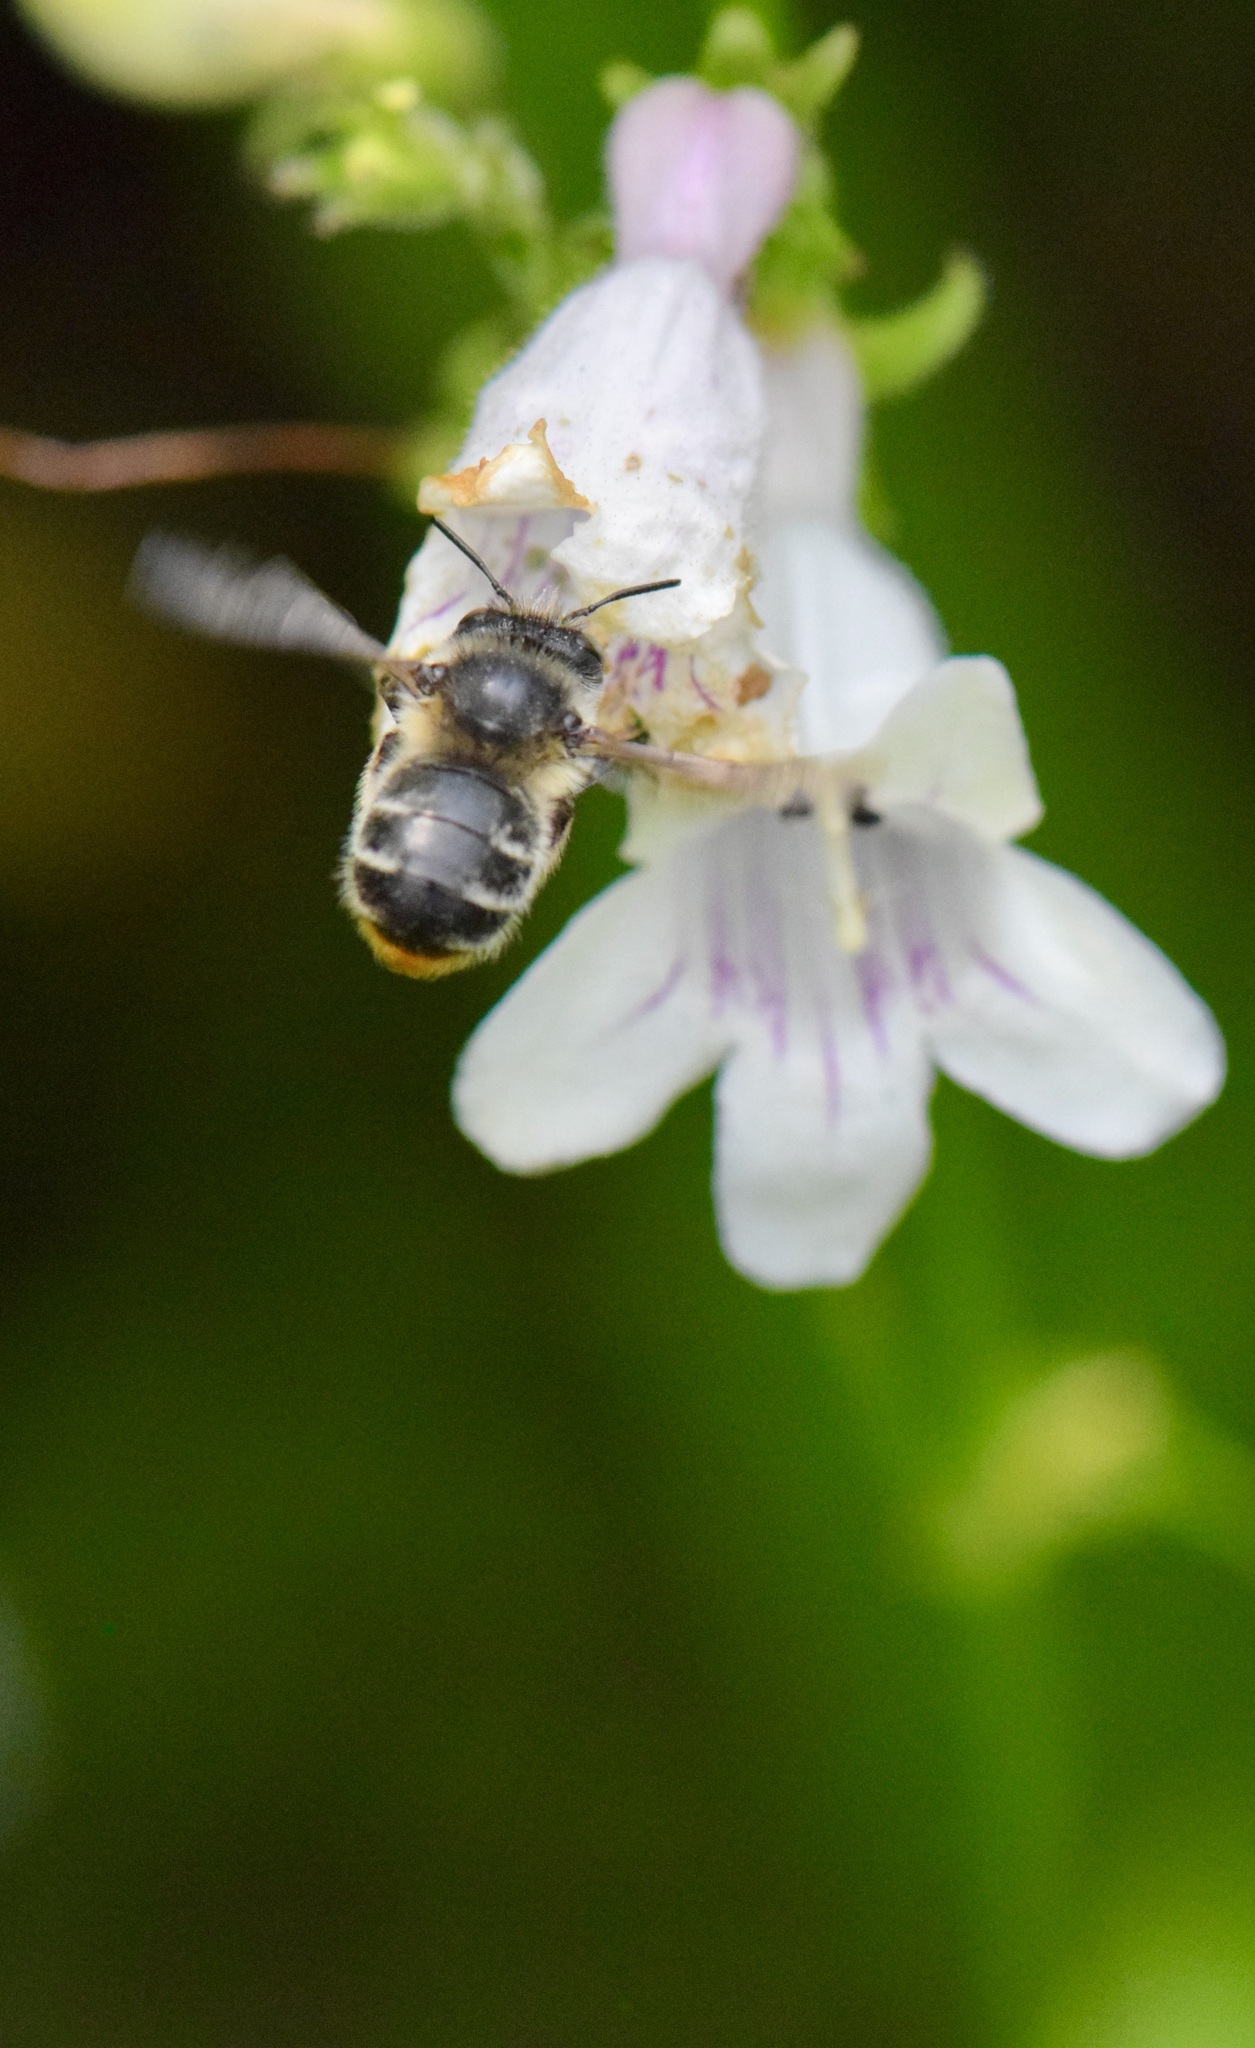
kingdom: Animalia
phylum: Arthropoda
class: Insecta
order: Hymenoptera
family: Apidae
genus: Anthophora
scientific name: Anthophora terminalis
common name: Orange-tipped wood-digger bee
